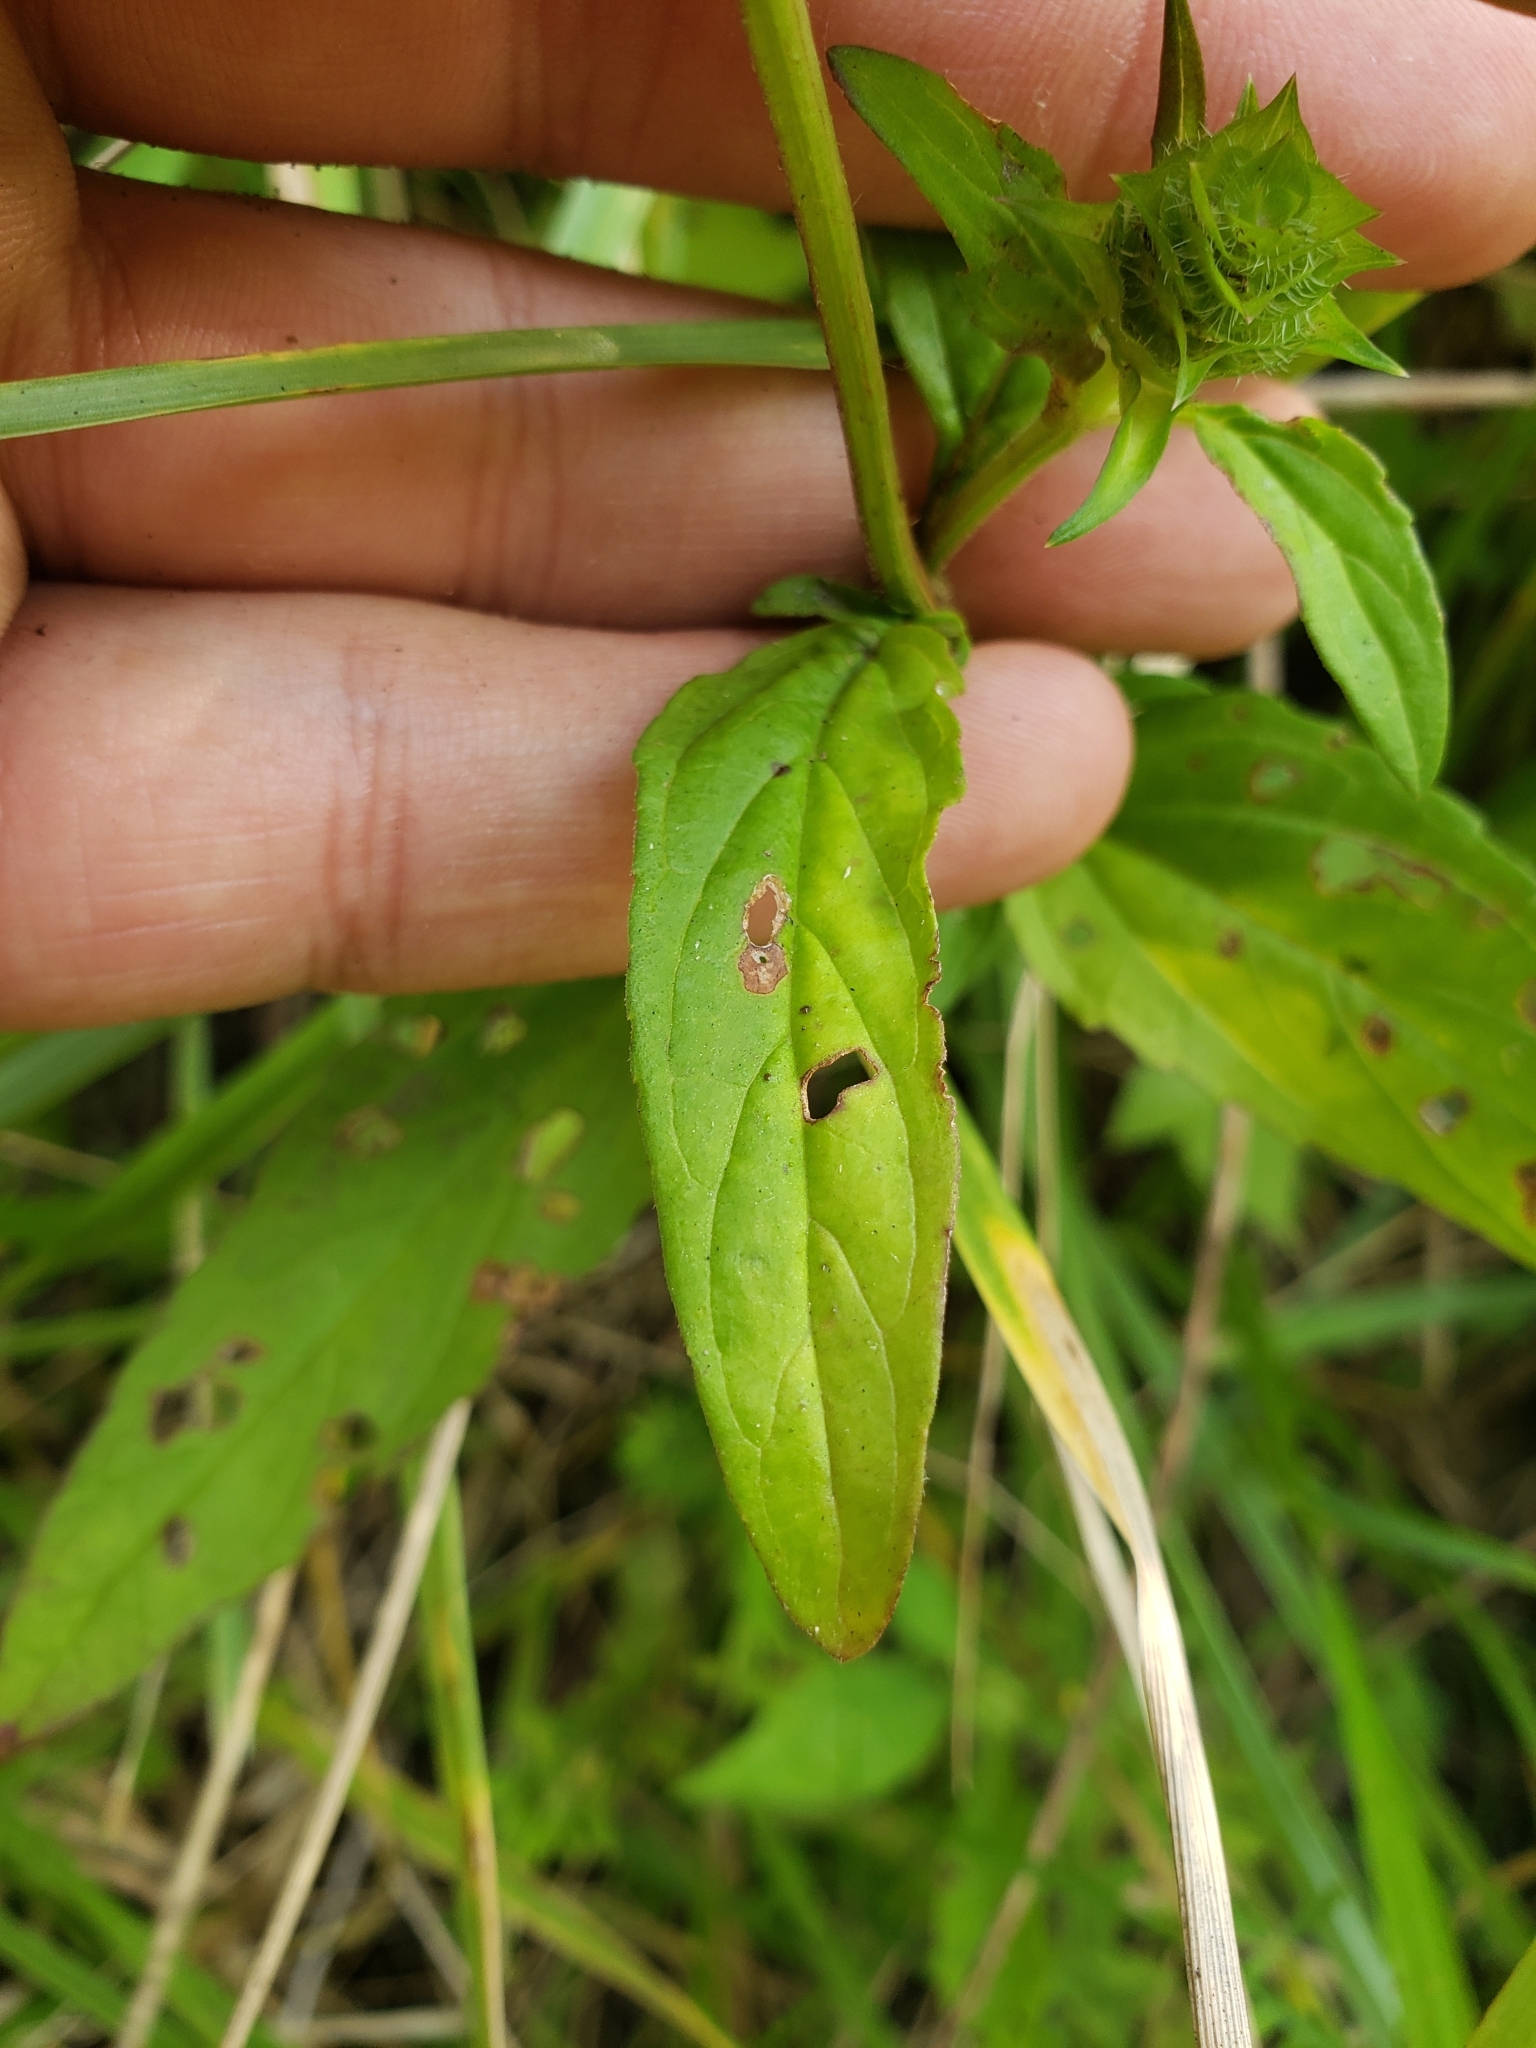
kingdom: Plantae
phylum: Tracheophyta
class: Magnoliopsida
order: Lamiales
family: Lamiaceae
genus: Prunella
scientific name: Prunella vulgaris
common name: Heal-all
